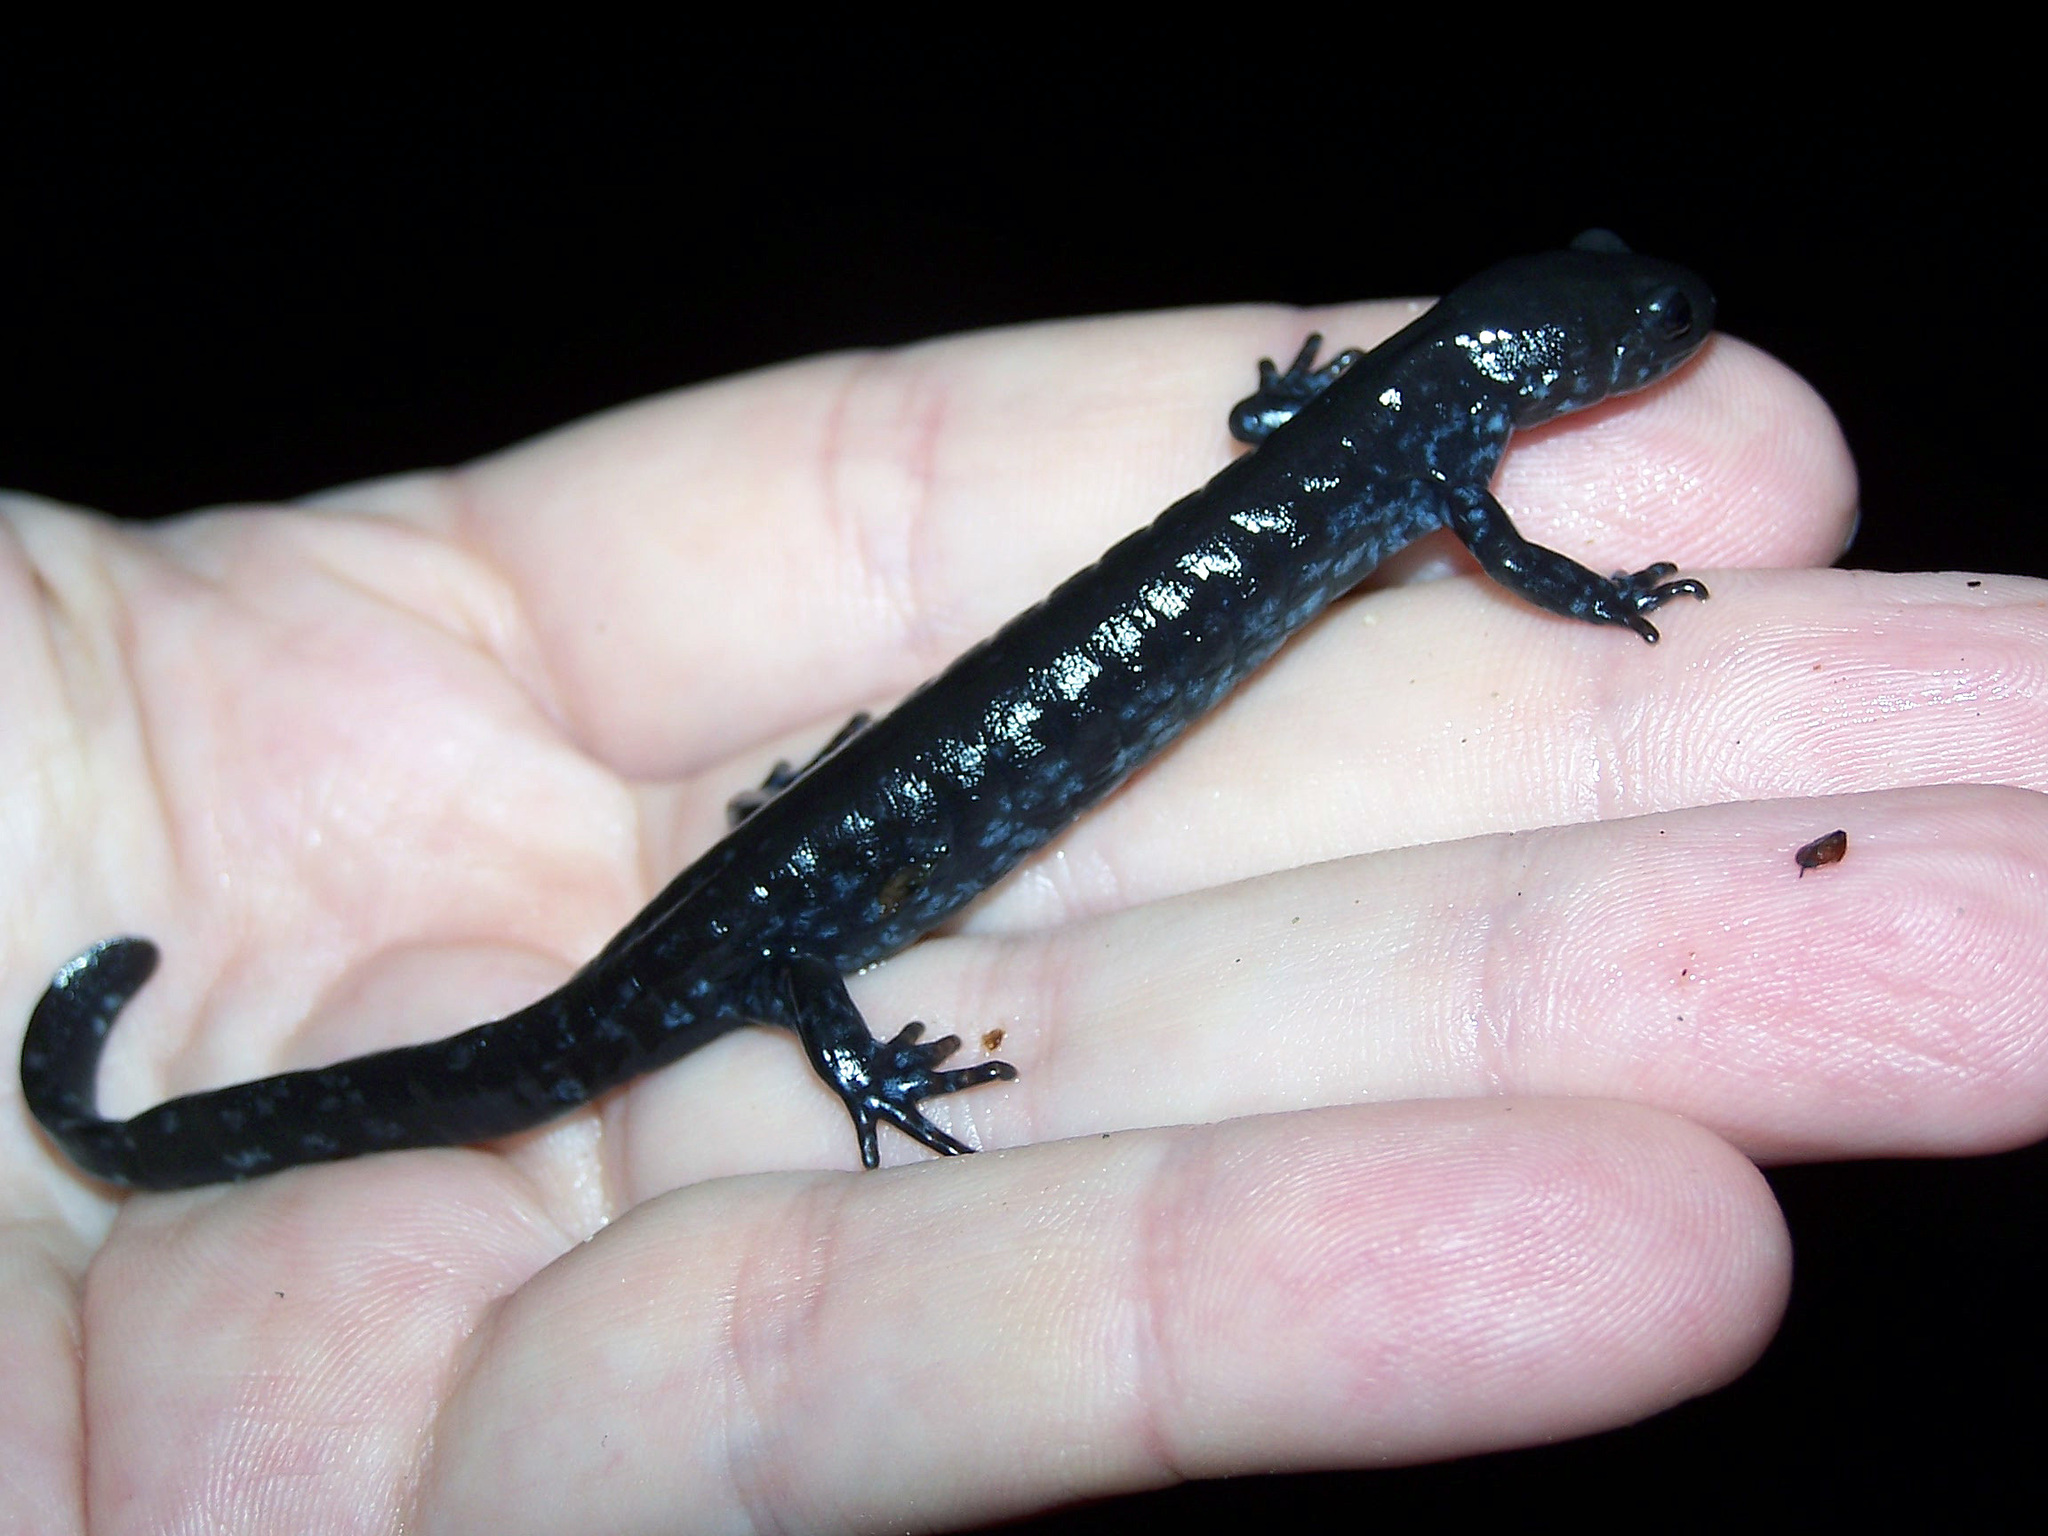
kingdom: Animalia
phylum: Chordata
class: Amphibia
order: Caudata
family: Ambystomatidae
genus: Ambystoma
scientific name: Ambystoma laterale
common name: Blue-spotted salamander
